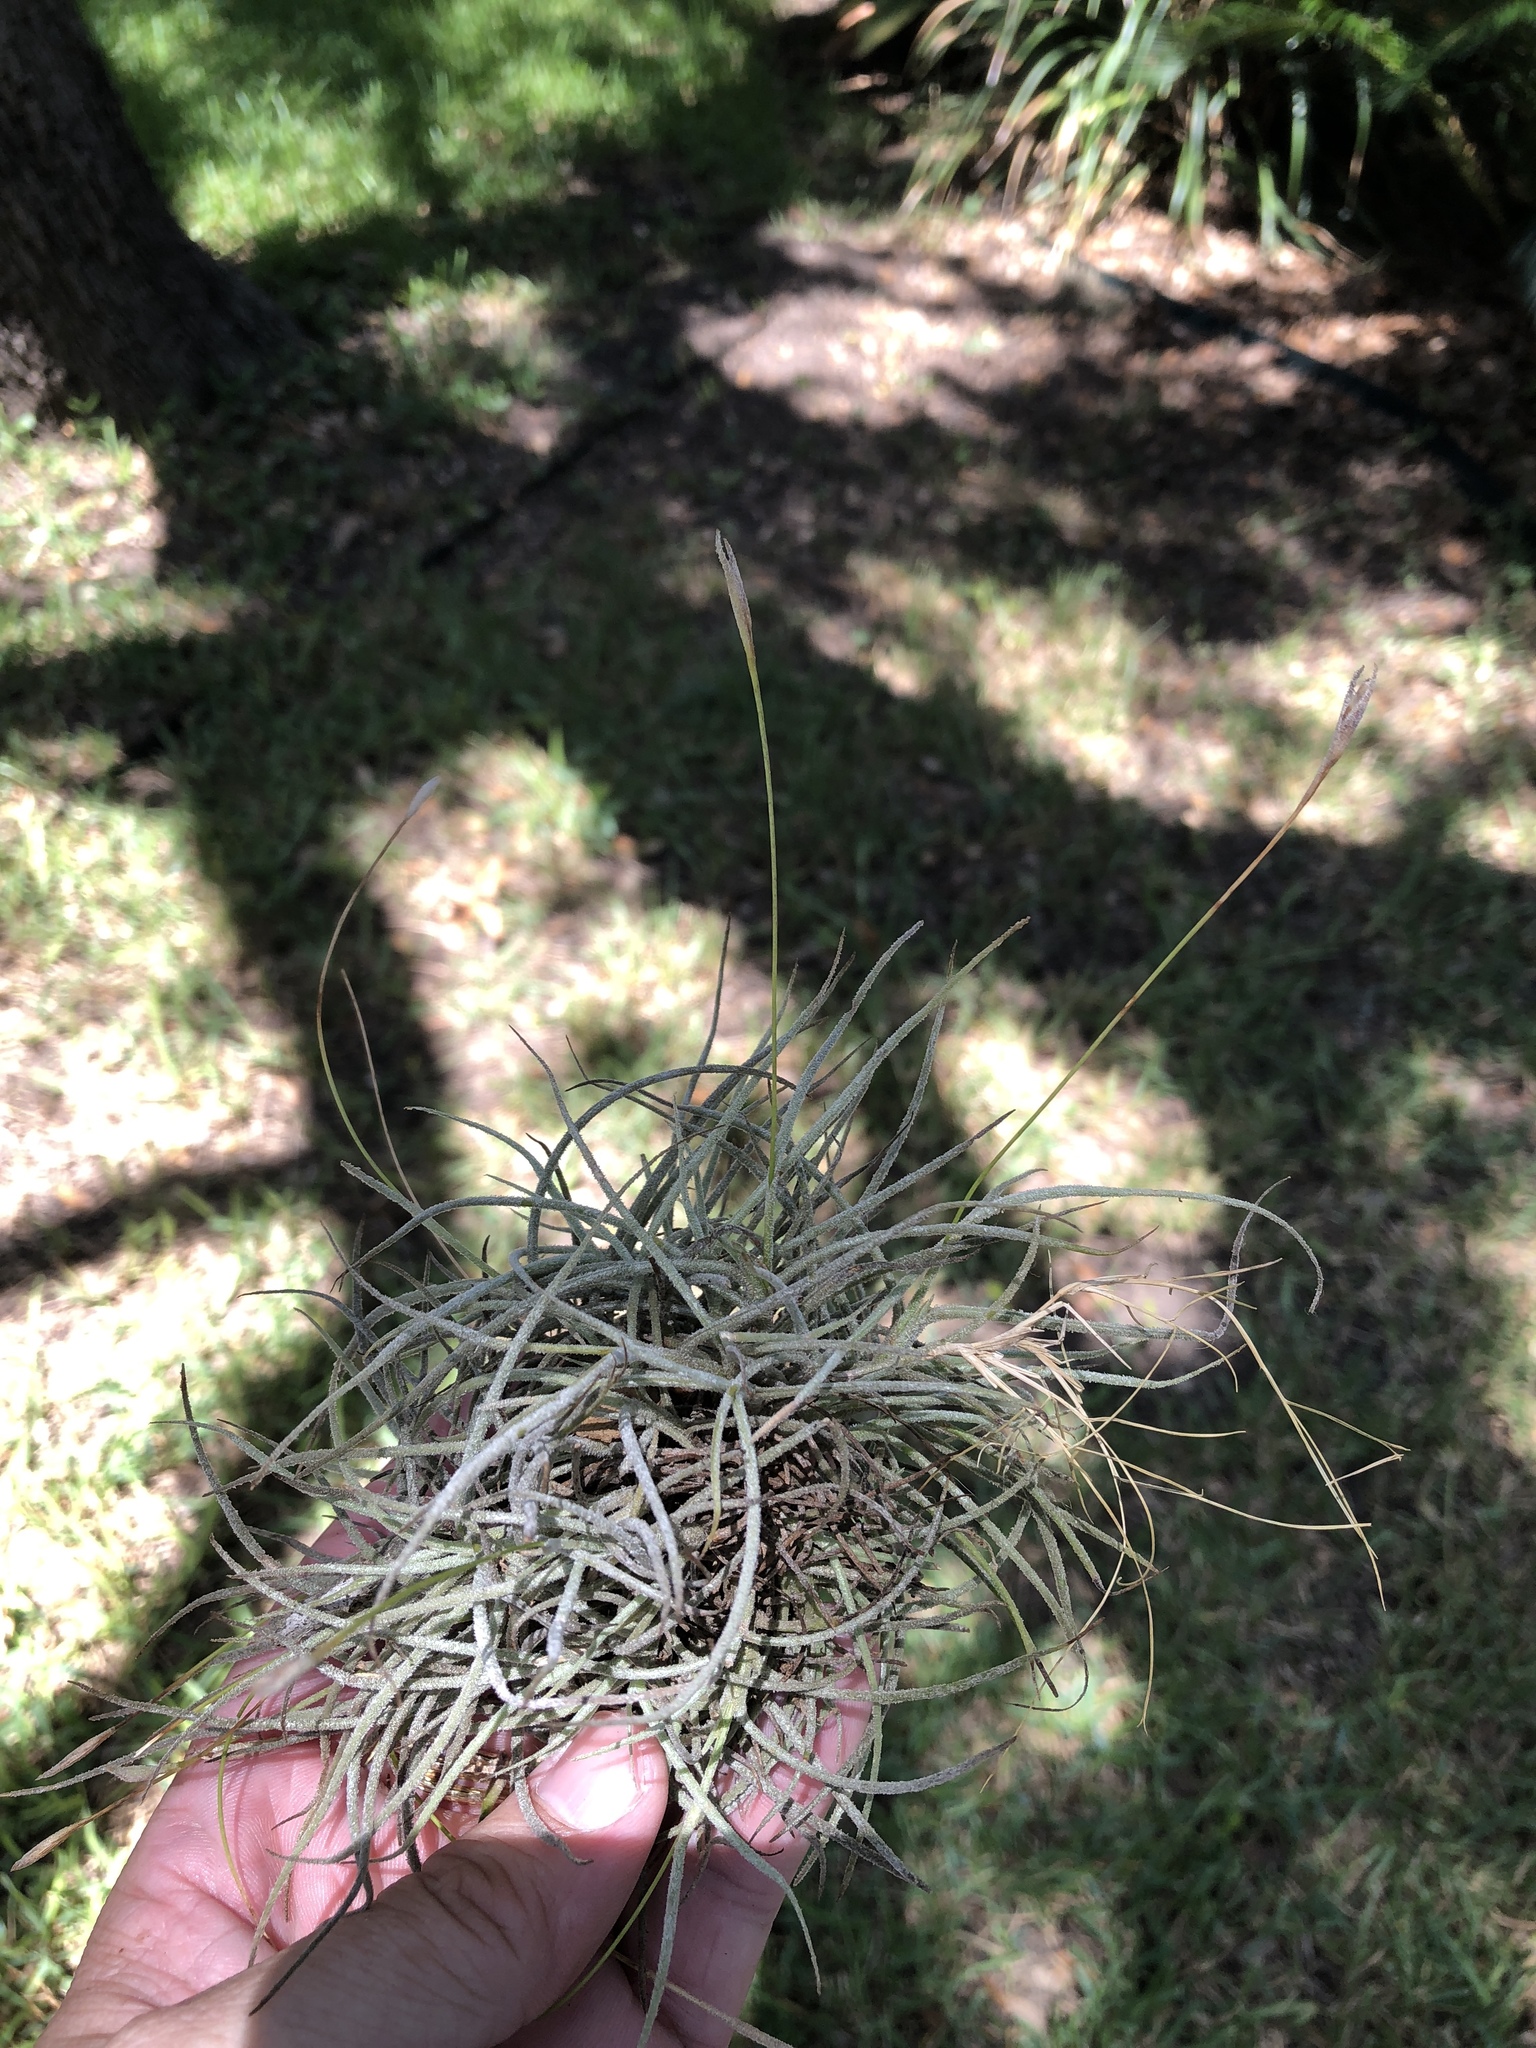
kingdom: Plantae
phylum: Tracheophyta
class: Liliopsida
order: Poales
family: Bromeliaceae
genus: Tillandsia
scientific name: Tillandsia recurvata
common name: Small ballmoss
